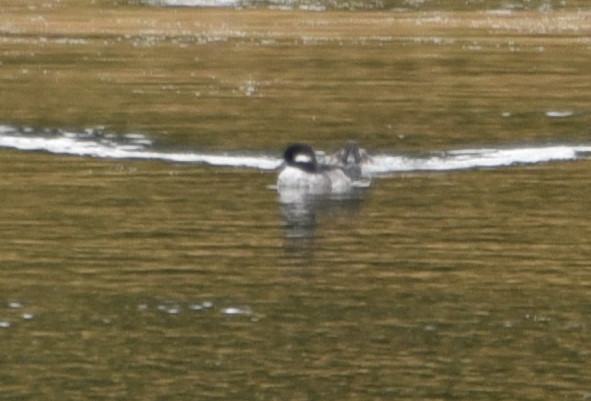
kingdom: Animalia
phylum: Chordata
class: Aves
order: Anseriformes
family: Anatidae
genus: Bucephala
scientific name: Bucephala albeola
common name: Bufflehead
